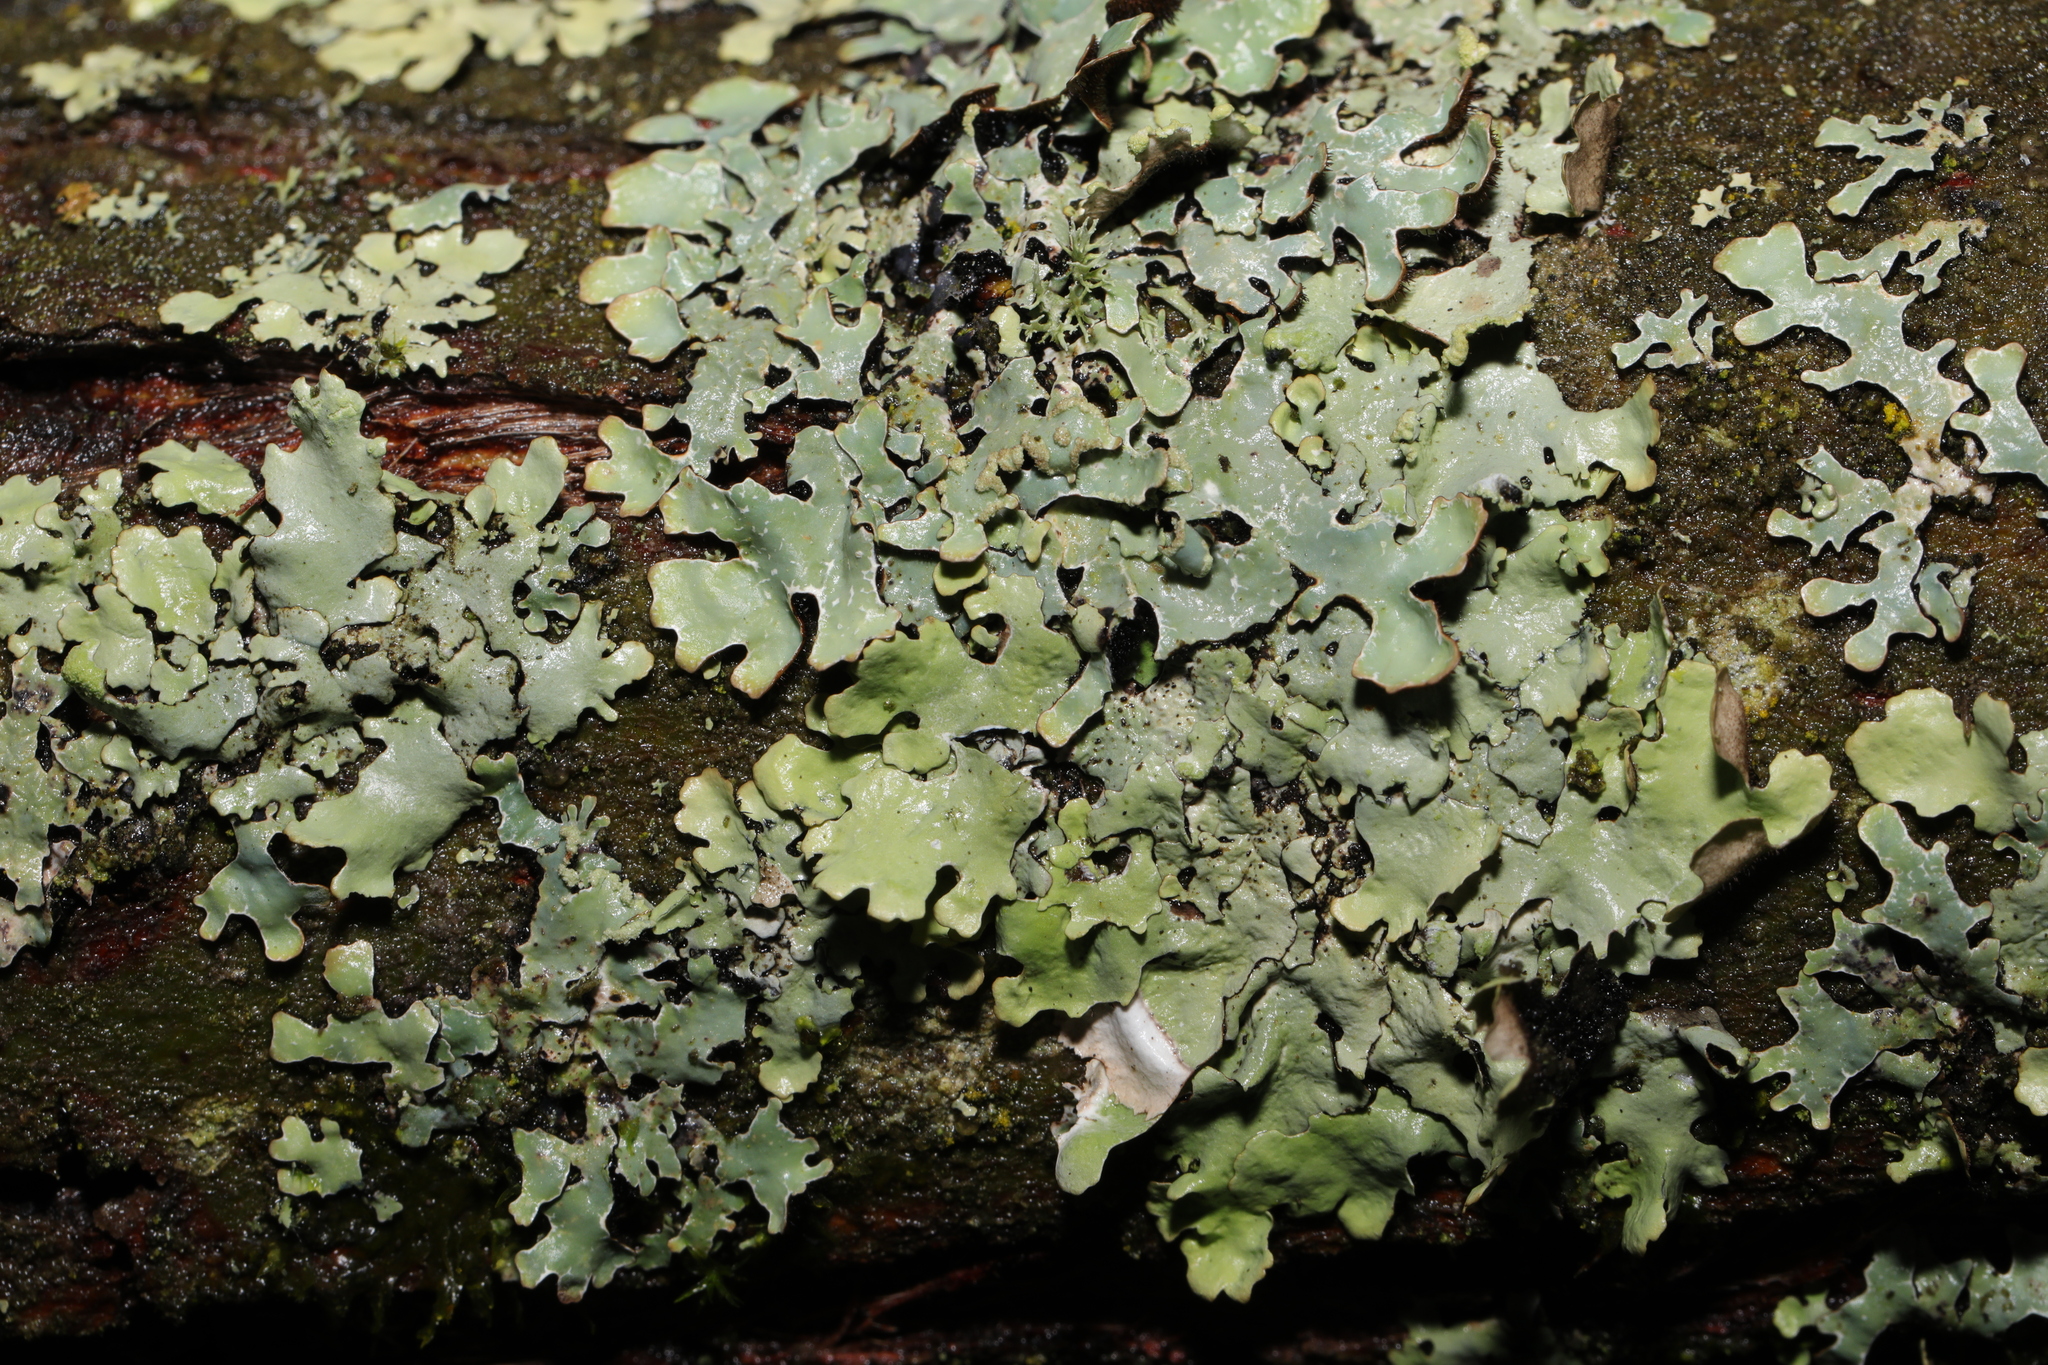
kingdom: Fungi
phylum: Ascomycota
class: Lecanoromycetes
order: Lecanorales
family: Parmeliaceae
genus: Parmelia
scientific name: Parmelia sulcata
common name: Netted shield lichen
